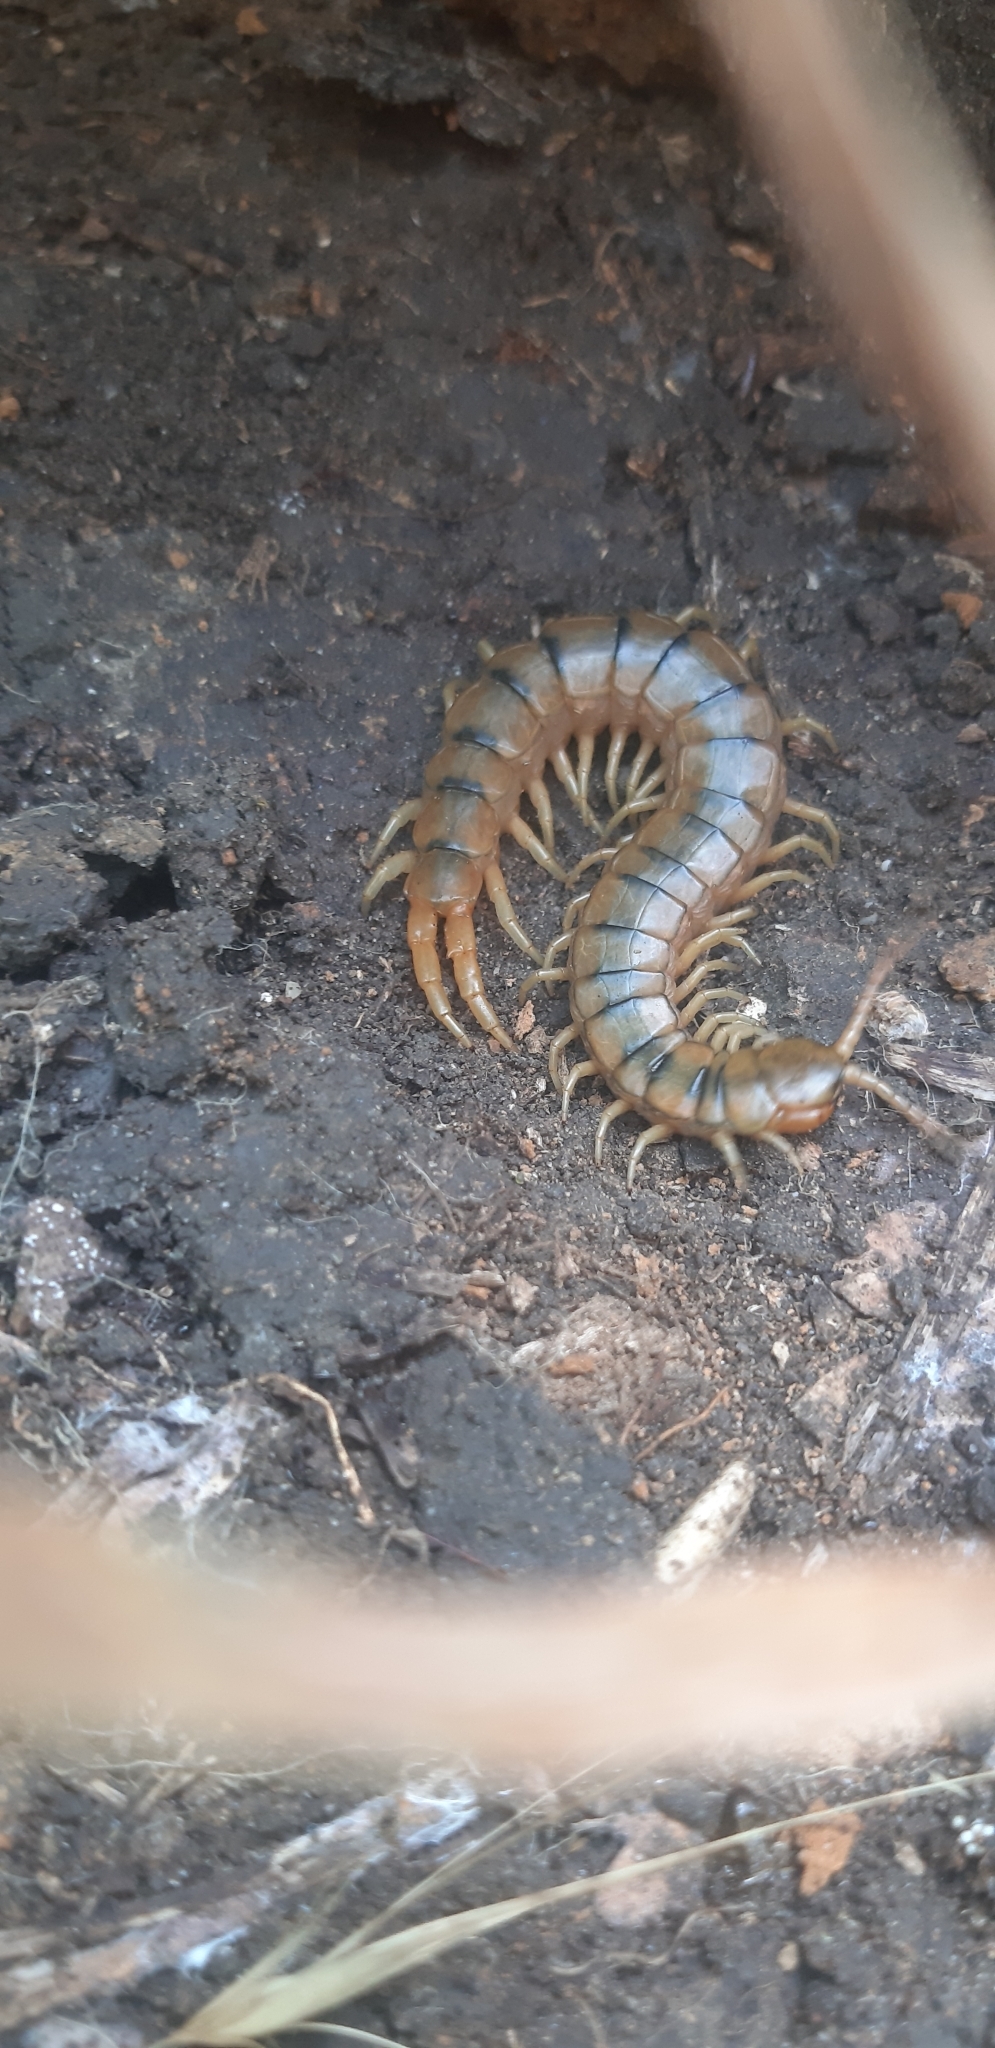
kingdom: Animalia
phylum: Arthropoda
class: Chilopoda
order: Scolopendromorpha
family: Scolopendridae
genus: Scolopendra
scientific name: Scolopendra cingulata
